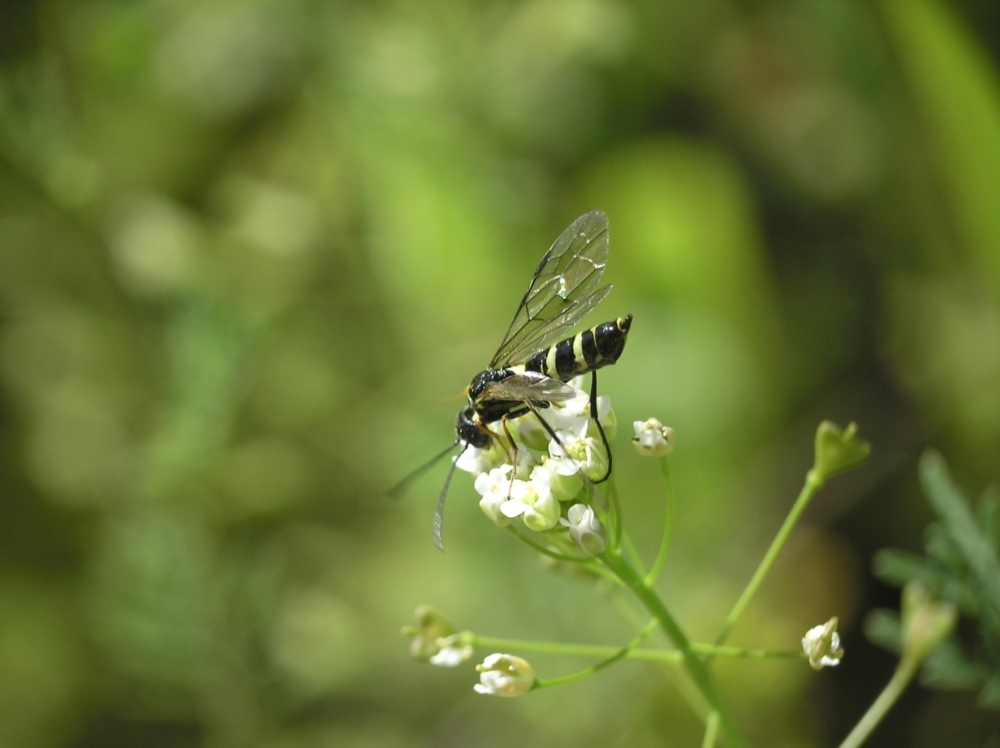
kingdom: Animalia
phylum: Arthropoda
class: Insecta
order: Hymenoptera
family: Cephidae
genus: Cephus
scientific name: Cephus pygmeus
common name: Wasp
